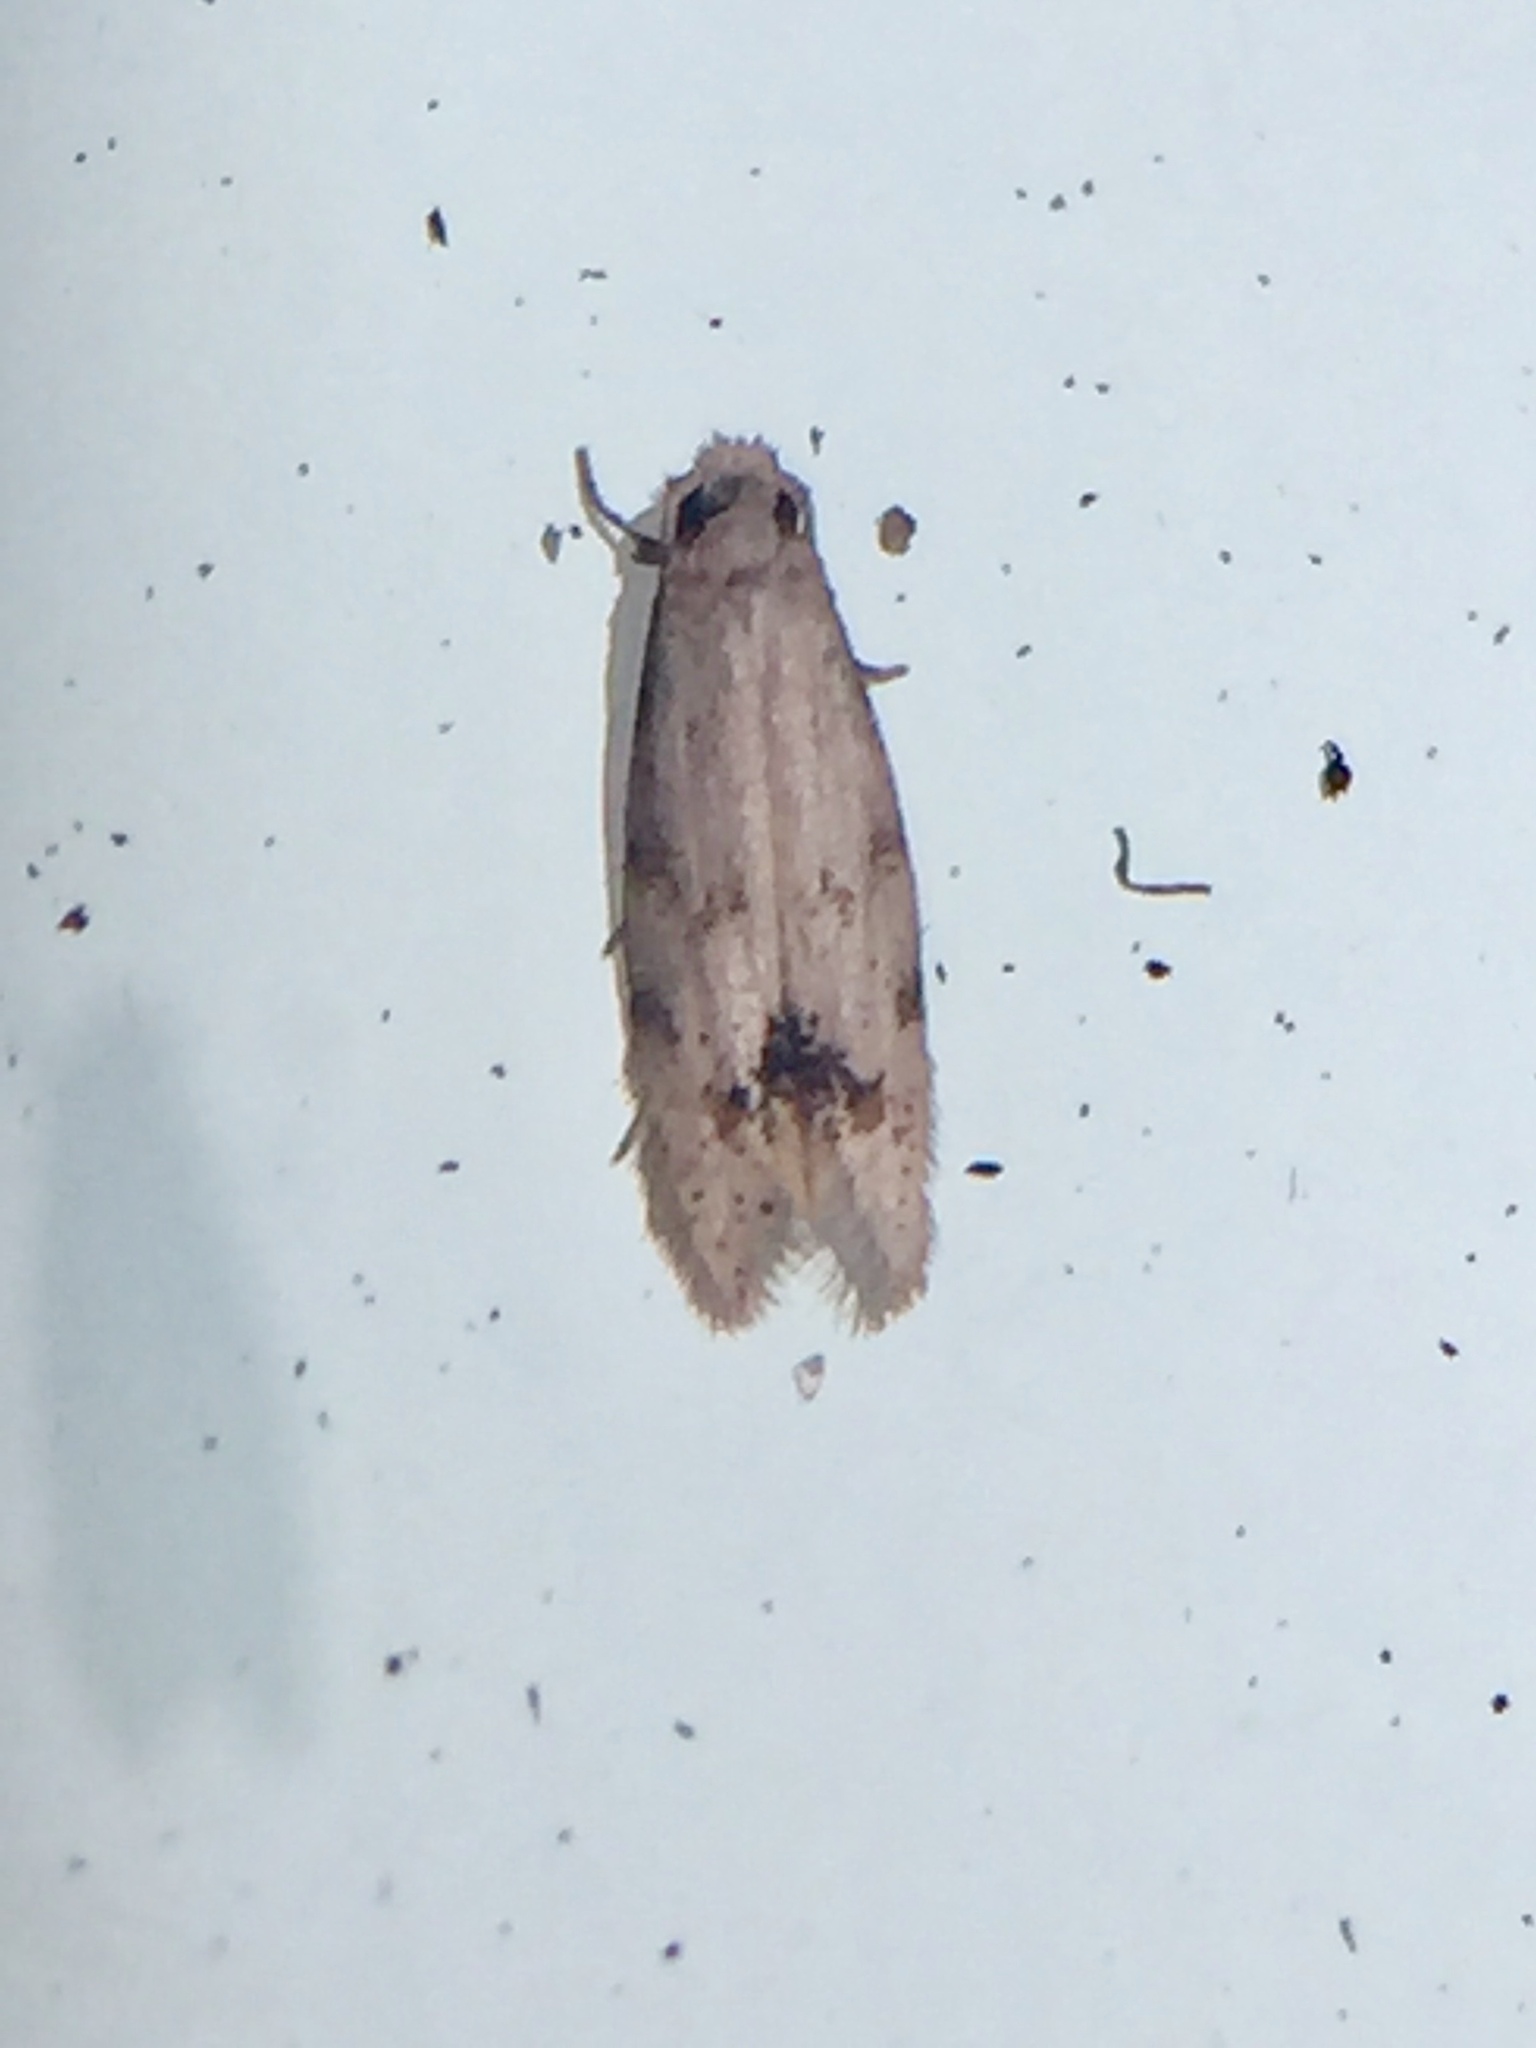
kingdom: Animalia
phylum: Arthropoda
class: Insecta
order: Lepidoptera
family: Tineidae
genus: Crypsitricha
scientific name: Crypsitricha stereota
